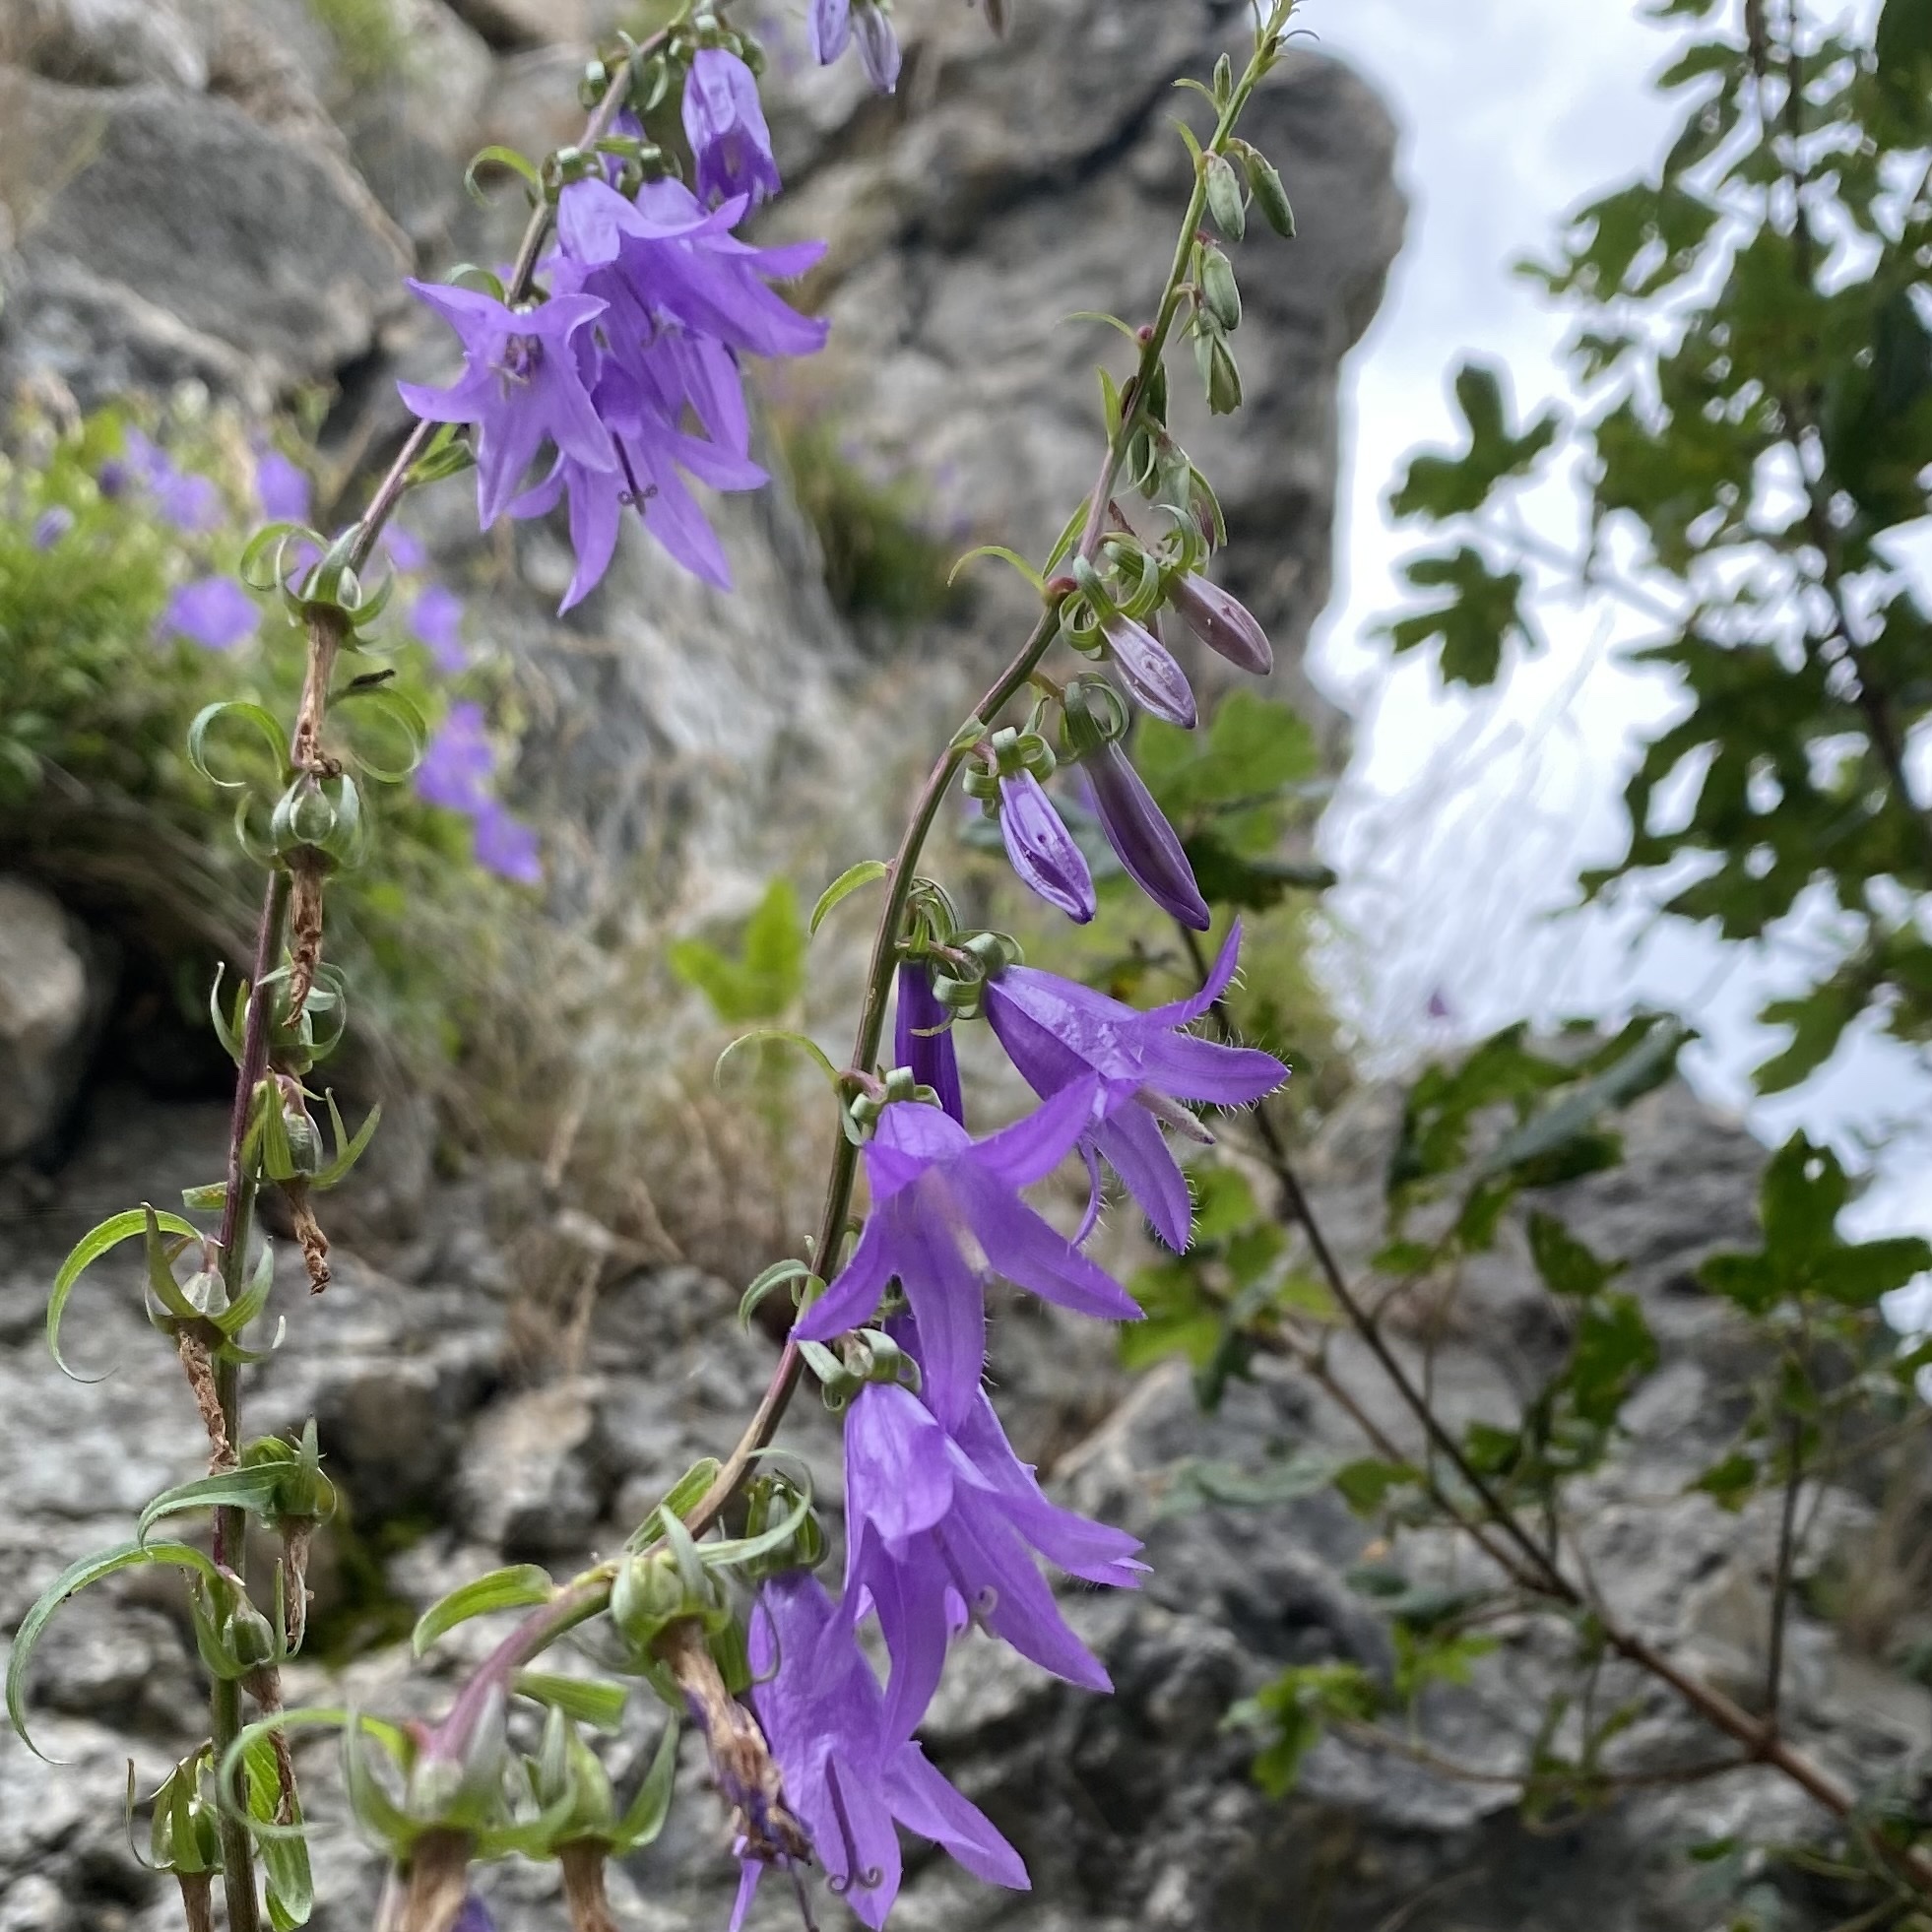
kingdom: Plantae
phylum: Tracheophyta
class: Magnoliopsida
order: Asterales
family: Campanulaceae
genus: Campanula
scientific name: Campanula rapunculoides
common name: Creeping bellflower
